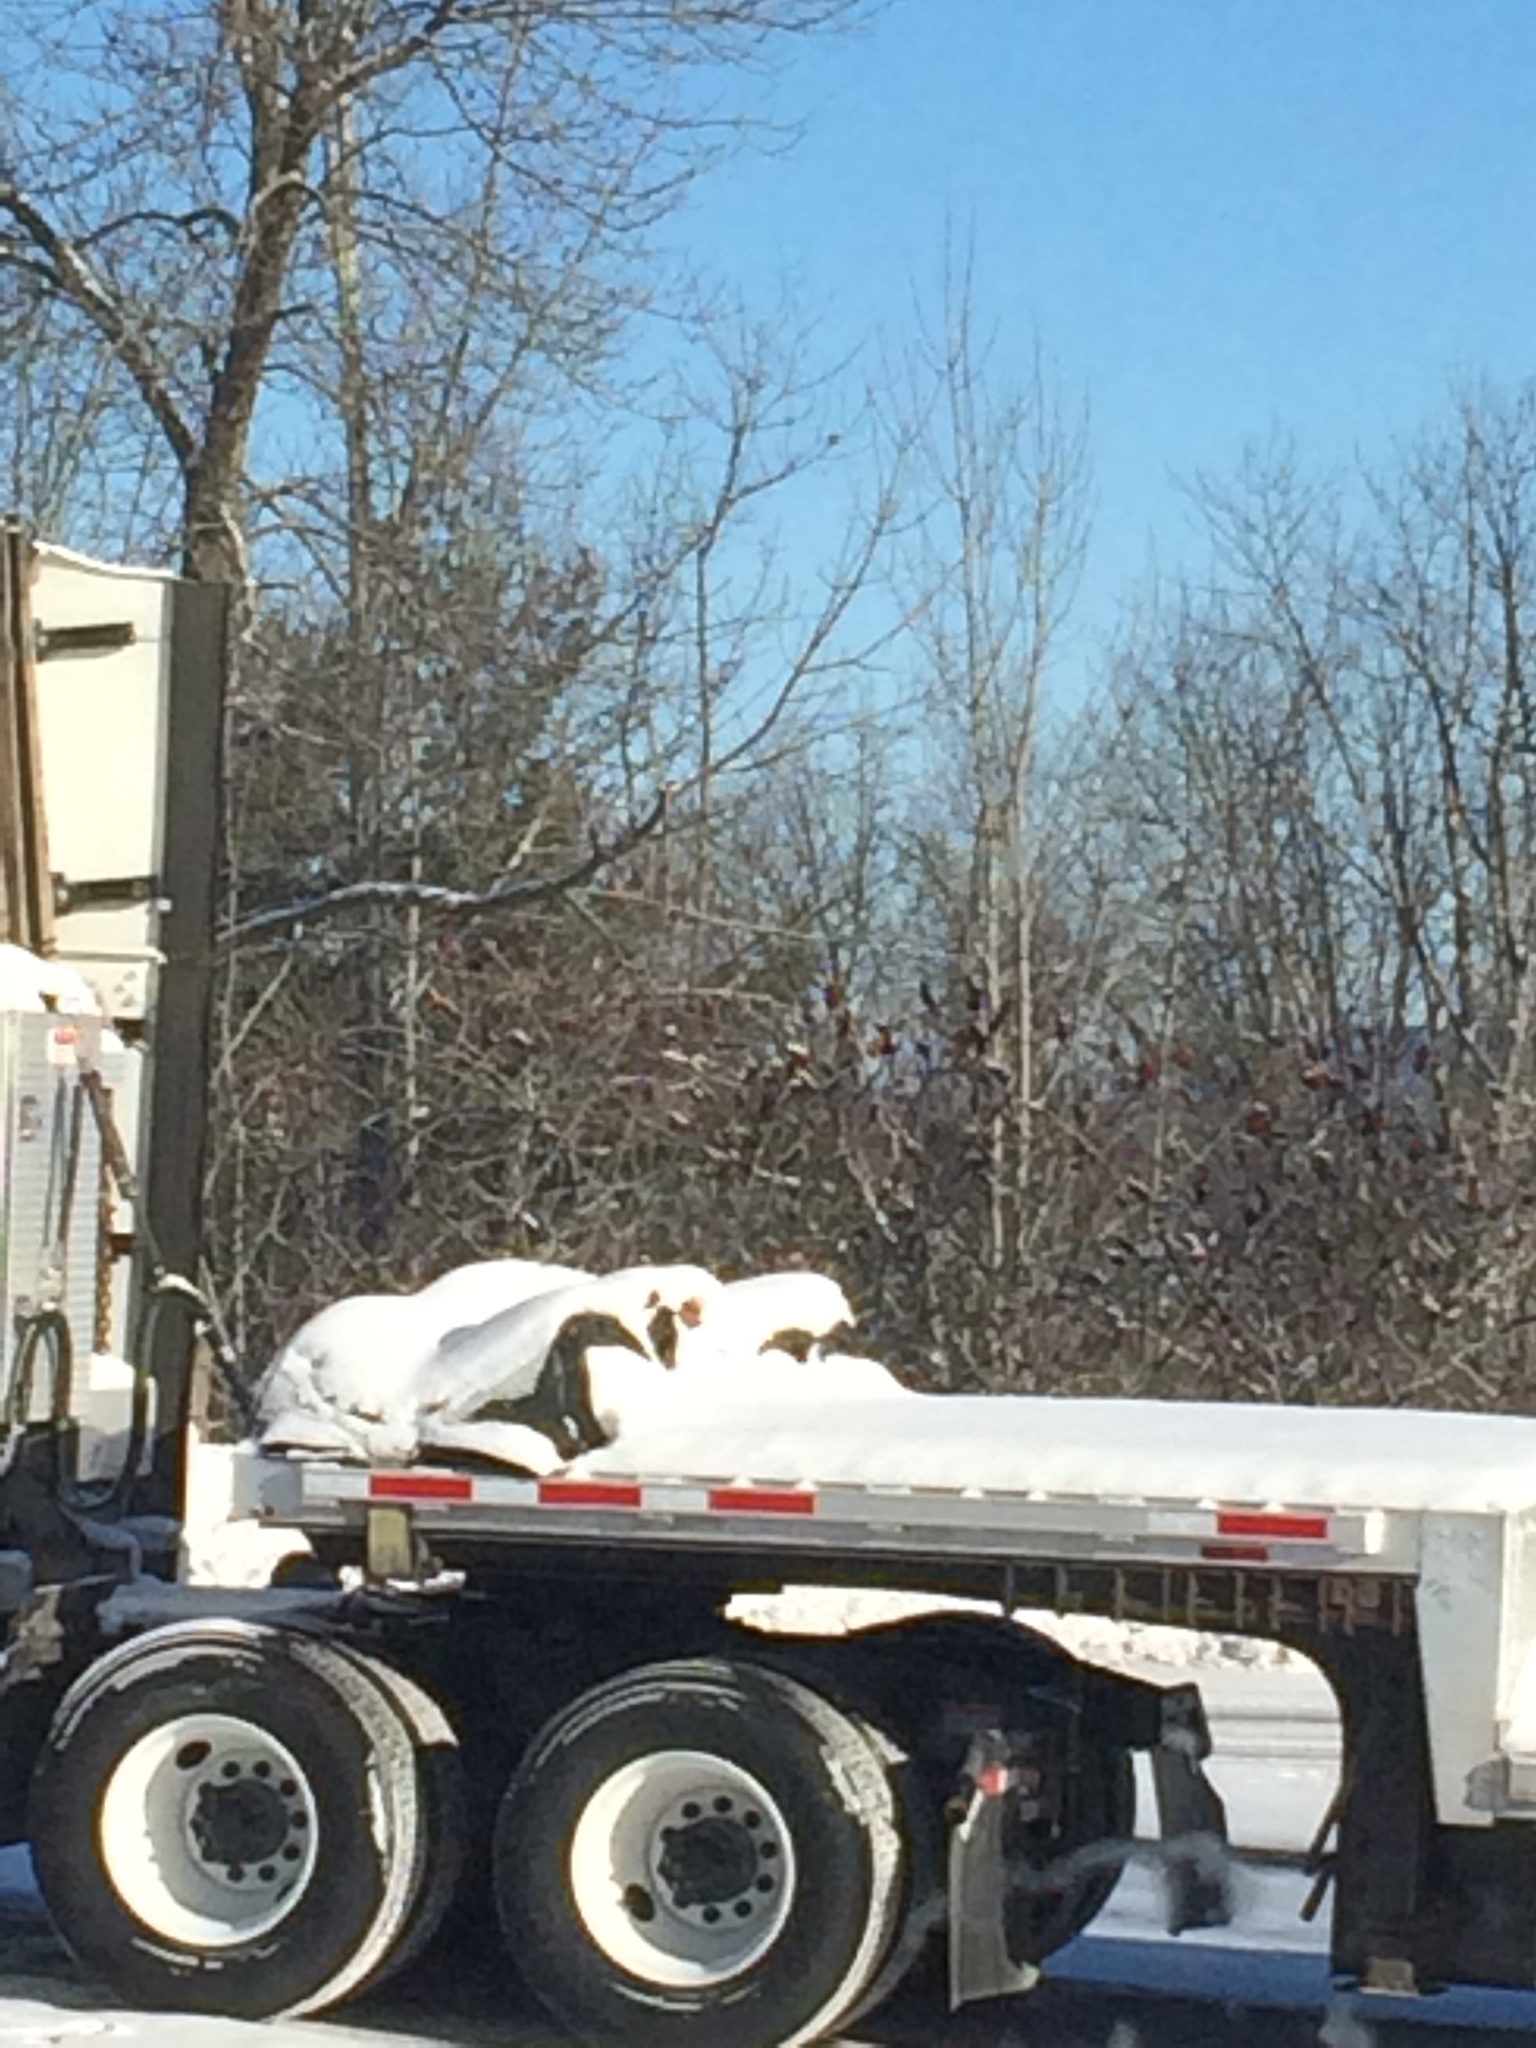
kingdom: Plantae
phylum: Tracheophyta
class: Magnoliopsida
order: Sapindales
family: Anacardiaceae
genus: Rhus
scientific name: Rhus typhina
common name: Staghorn sumac
